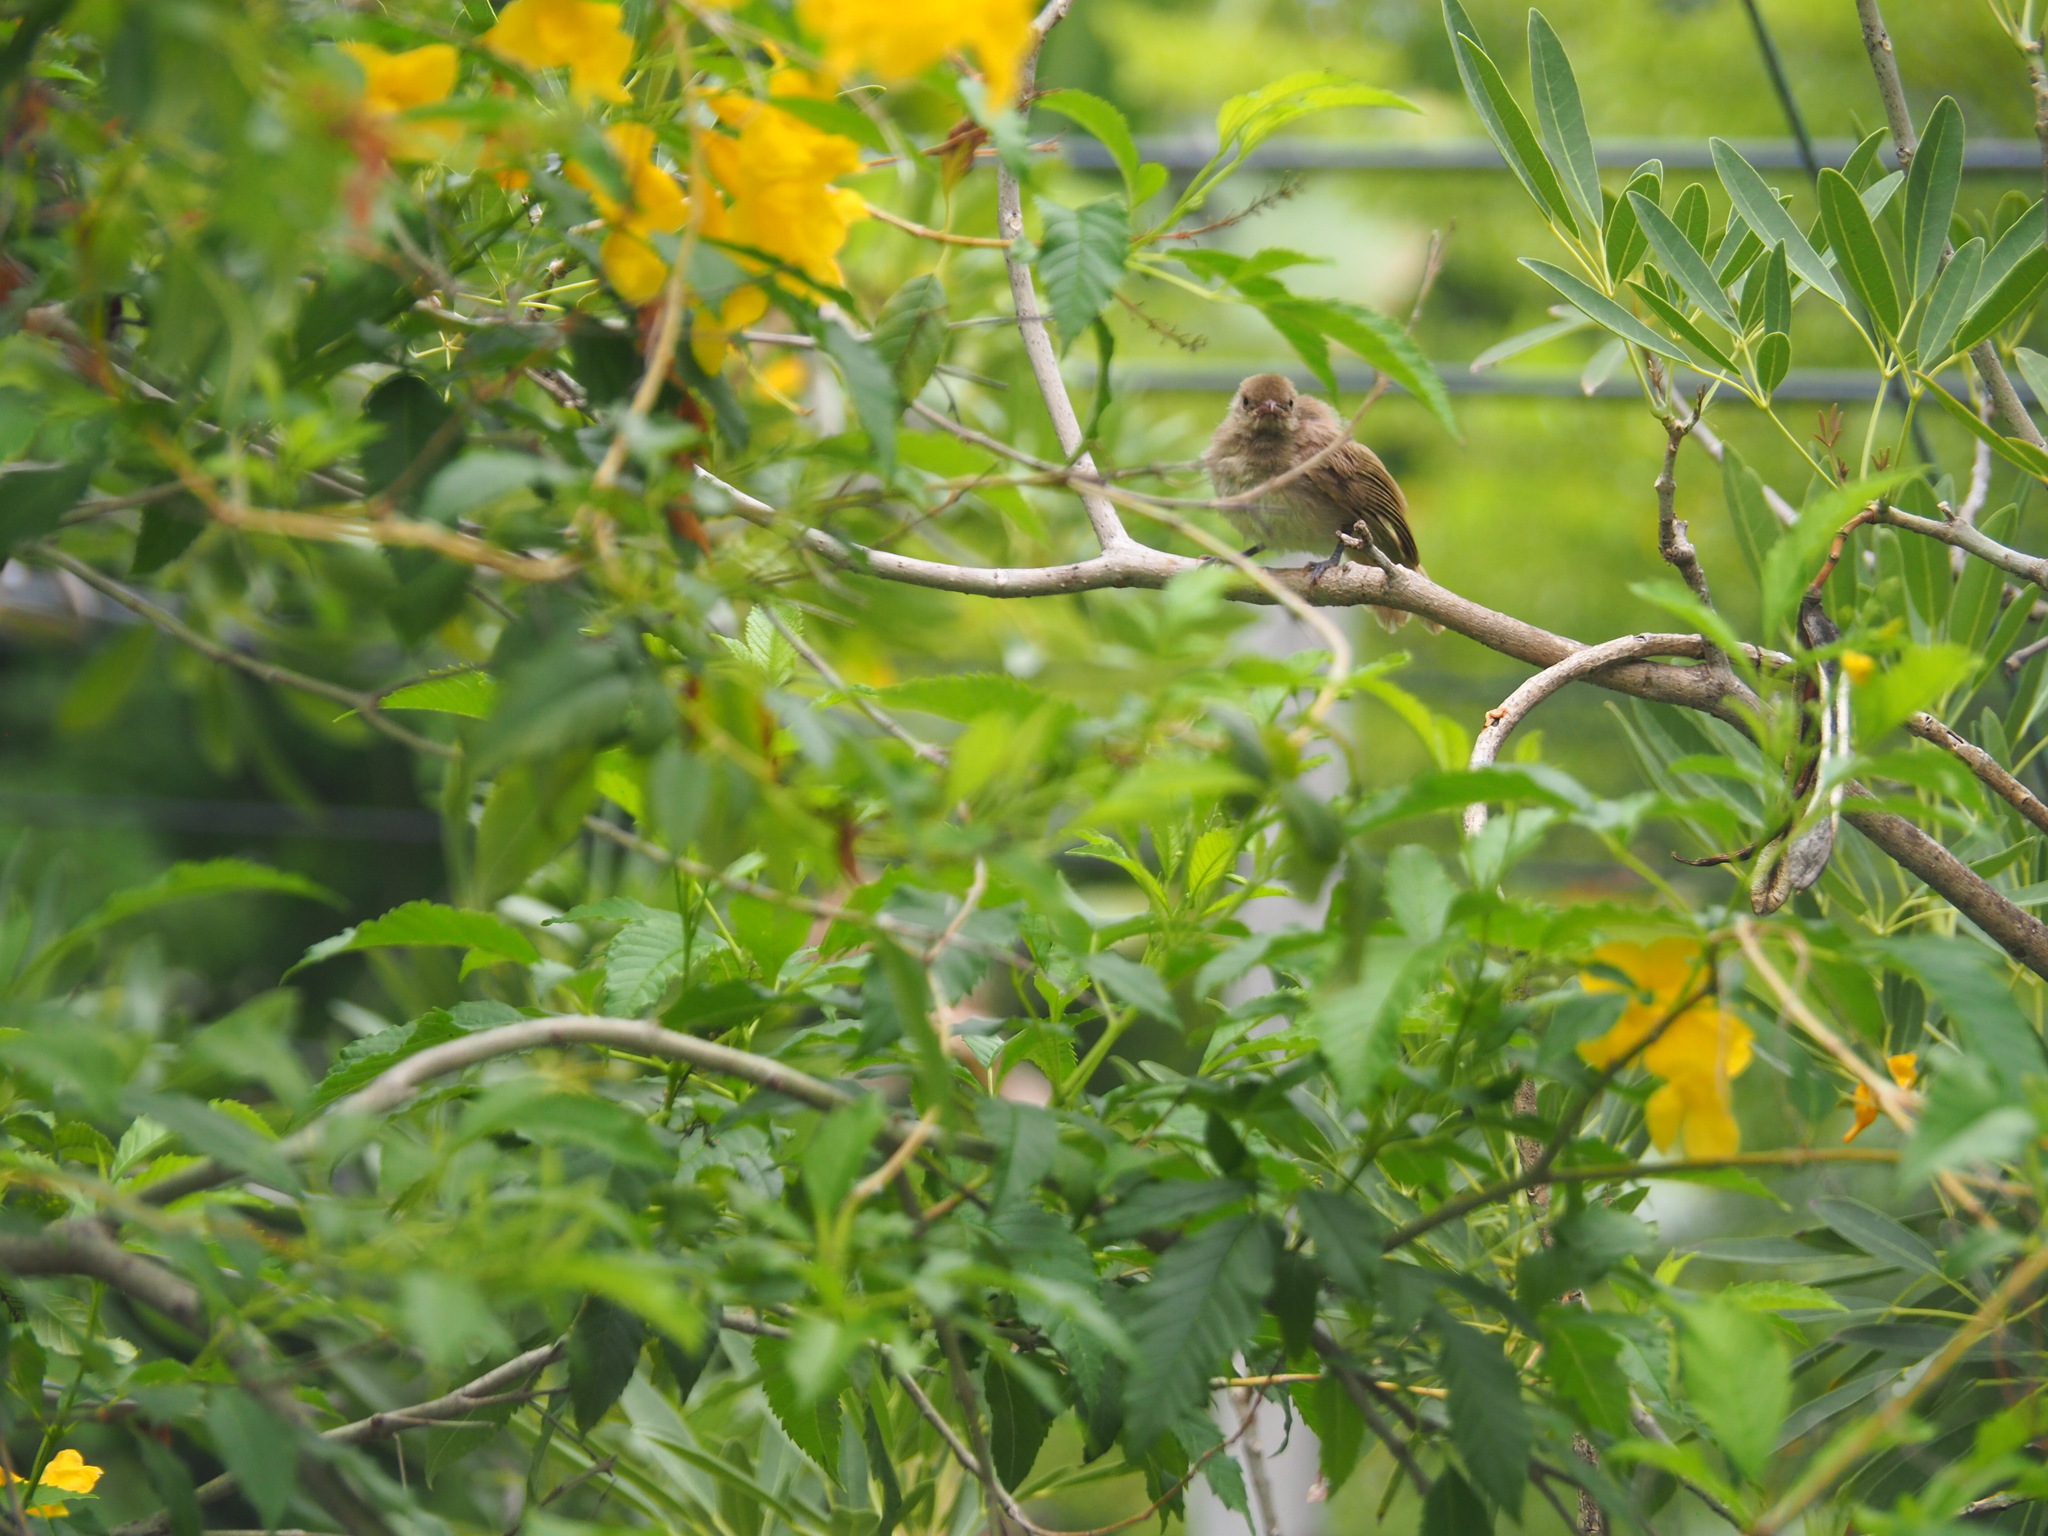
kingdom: Animalia
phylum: Chordata
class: Aves
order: Passeriformes
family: Pycnonotidae
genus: Pycnonotus
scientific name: Pycnonotus blanfordi
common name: Streak-eared bulbul
